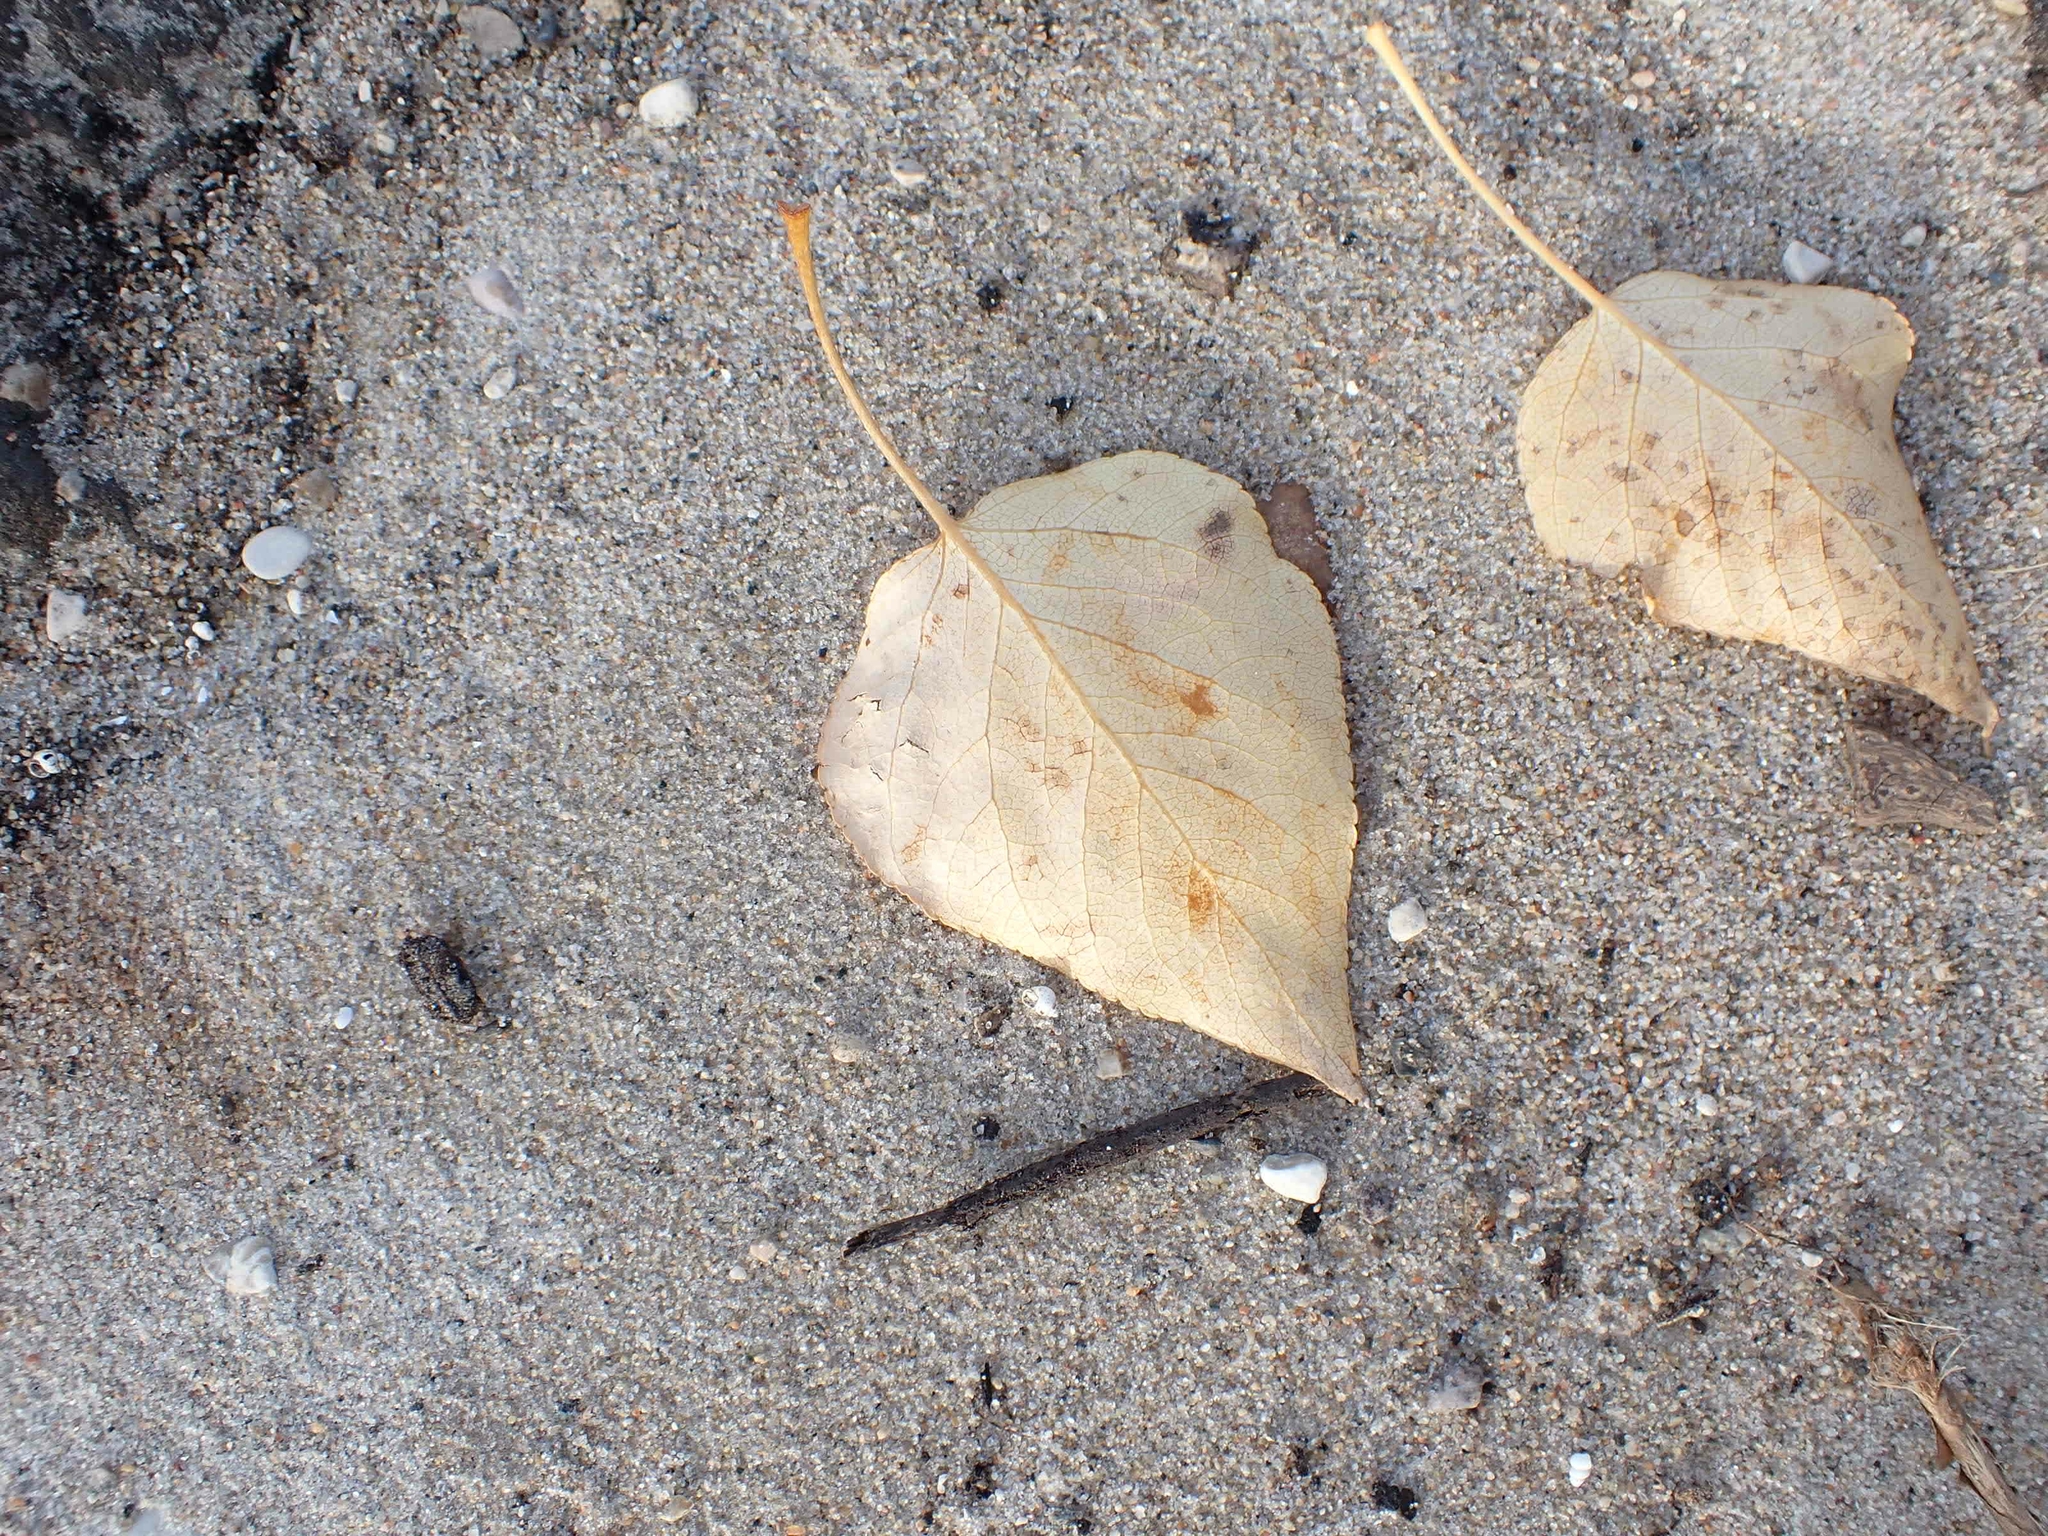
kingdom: Plantae
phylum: Tracheophyta
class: Magnoliopsida
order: Malpighiales
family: Salicaceae
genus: Populus
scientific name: Populus balsamifera
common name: Balsam poplar
